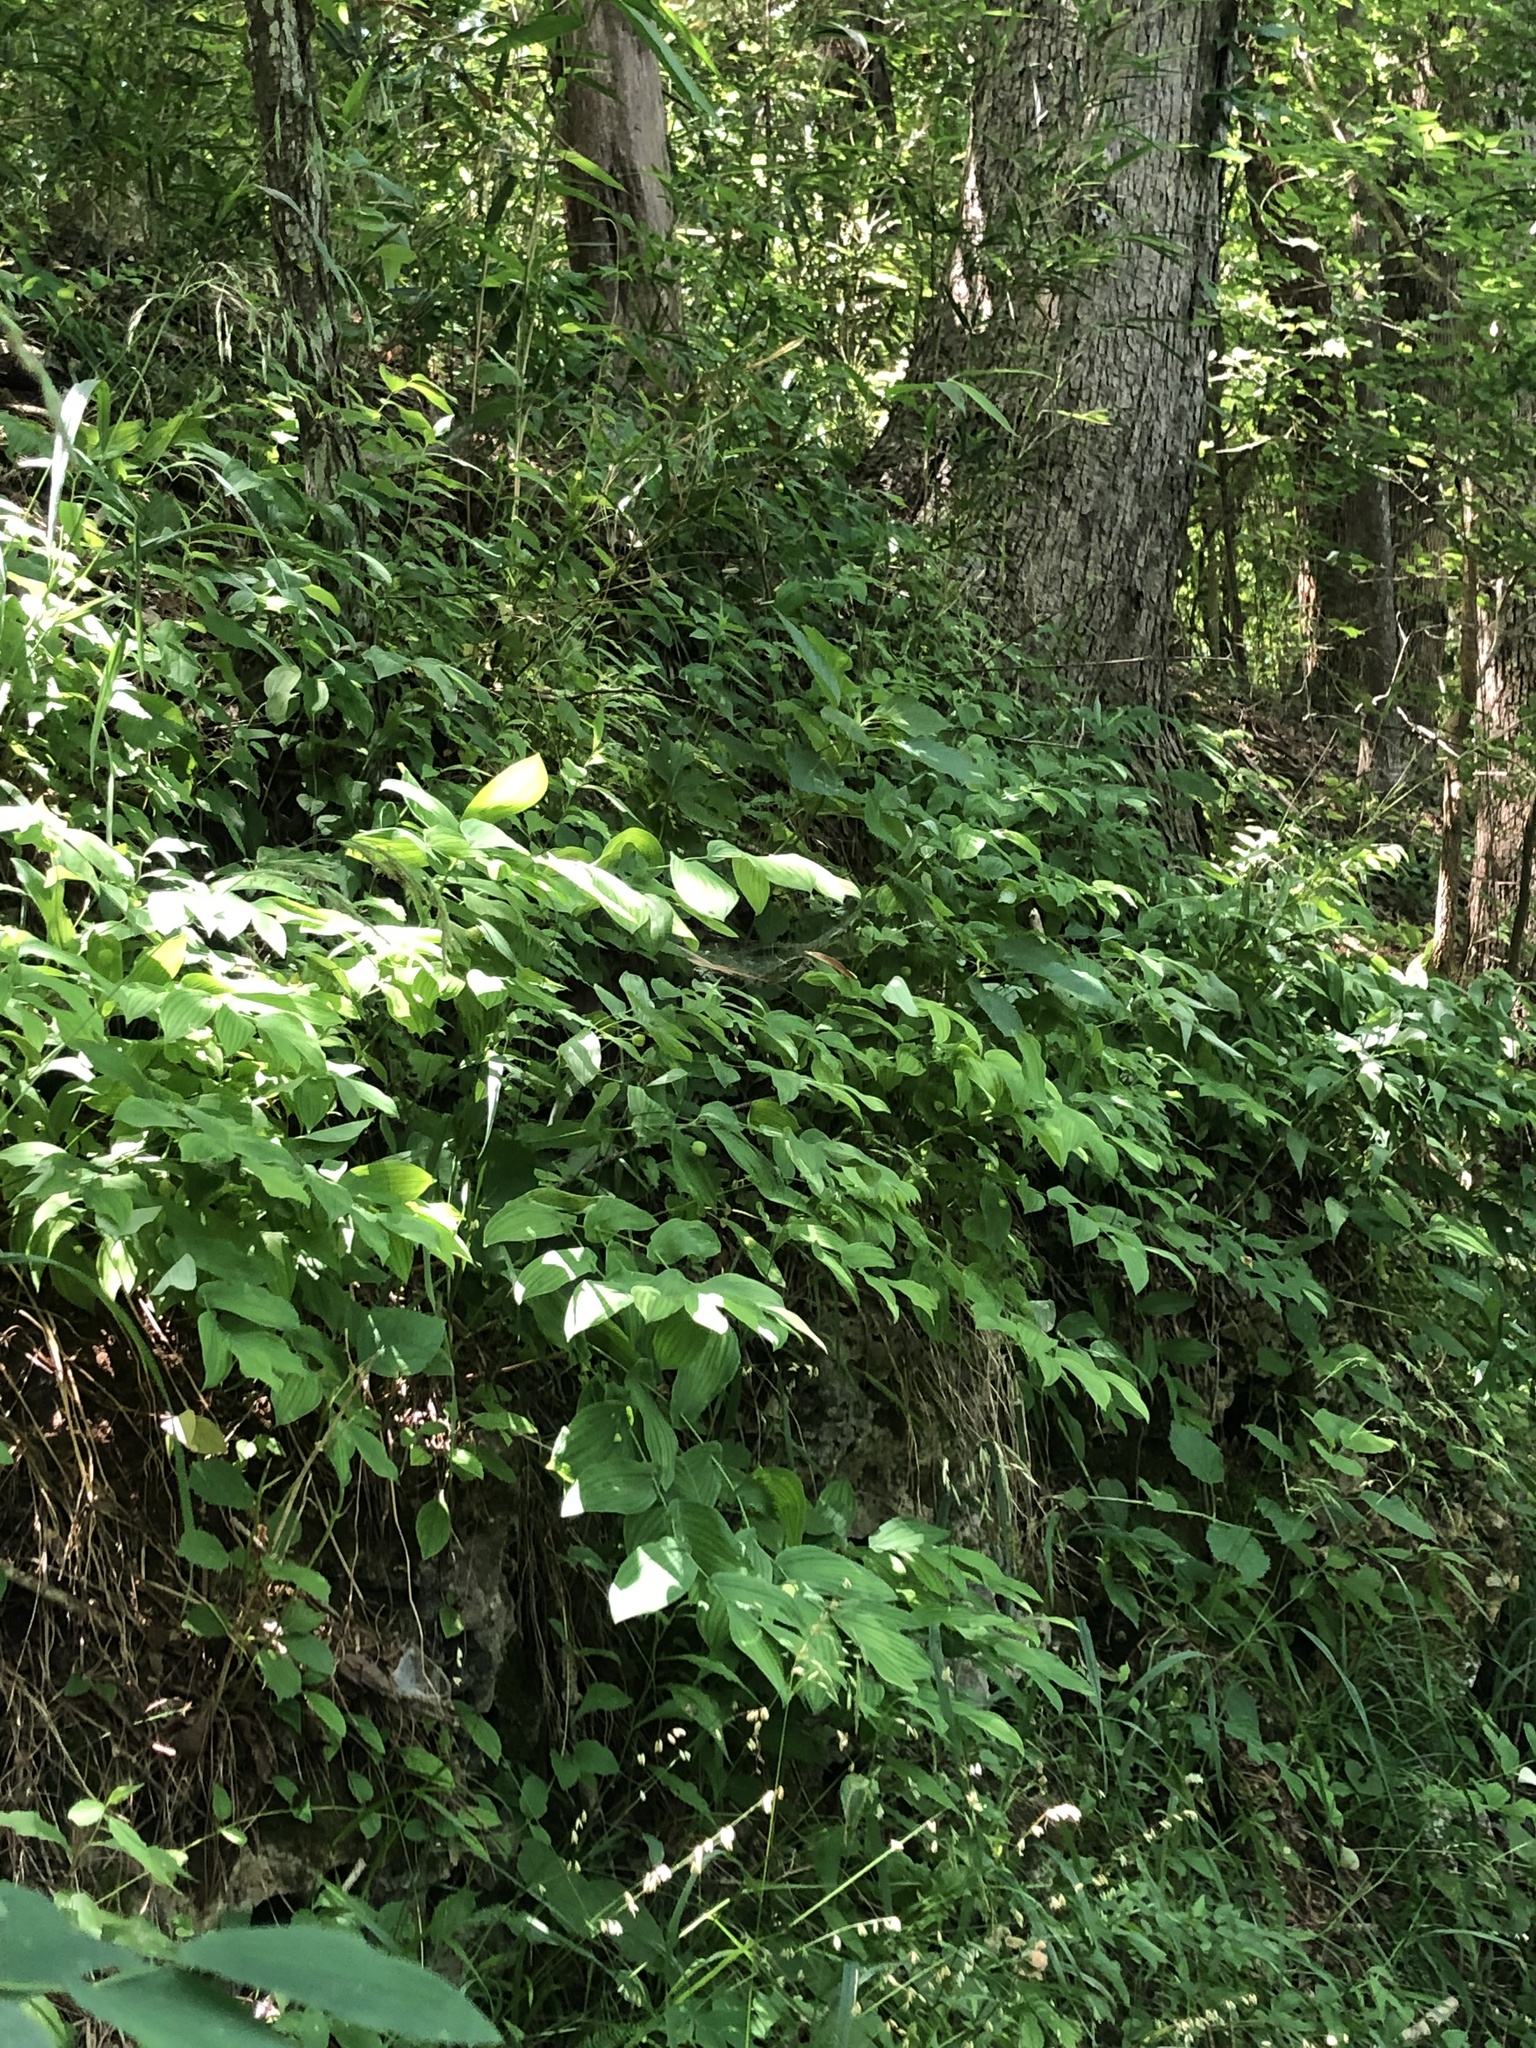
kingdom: Plantae
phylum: Tracheophyta
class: Liliopsida
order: Liliales
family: Colchicaceae
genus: Uvularia
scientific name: Uvularia grandiflora
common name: Bellwort
